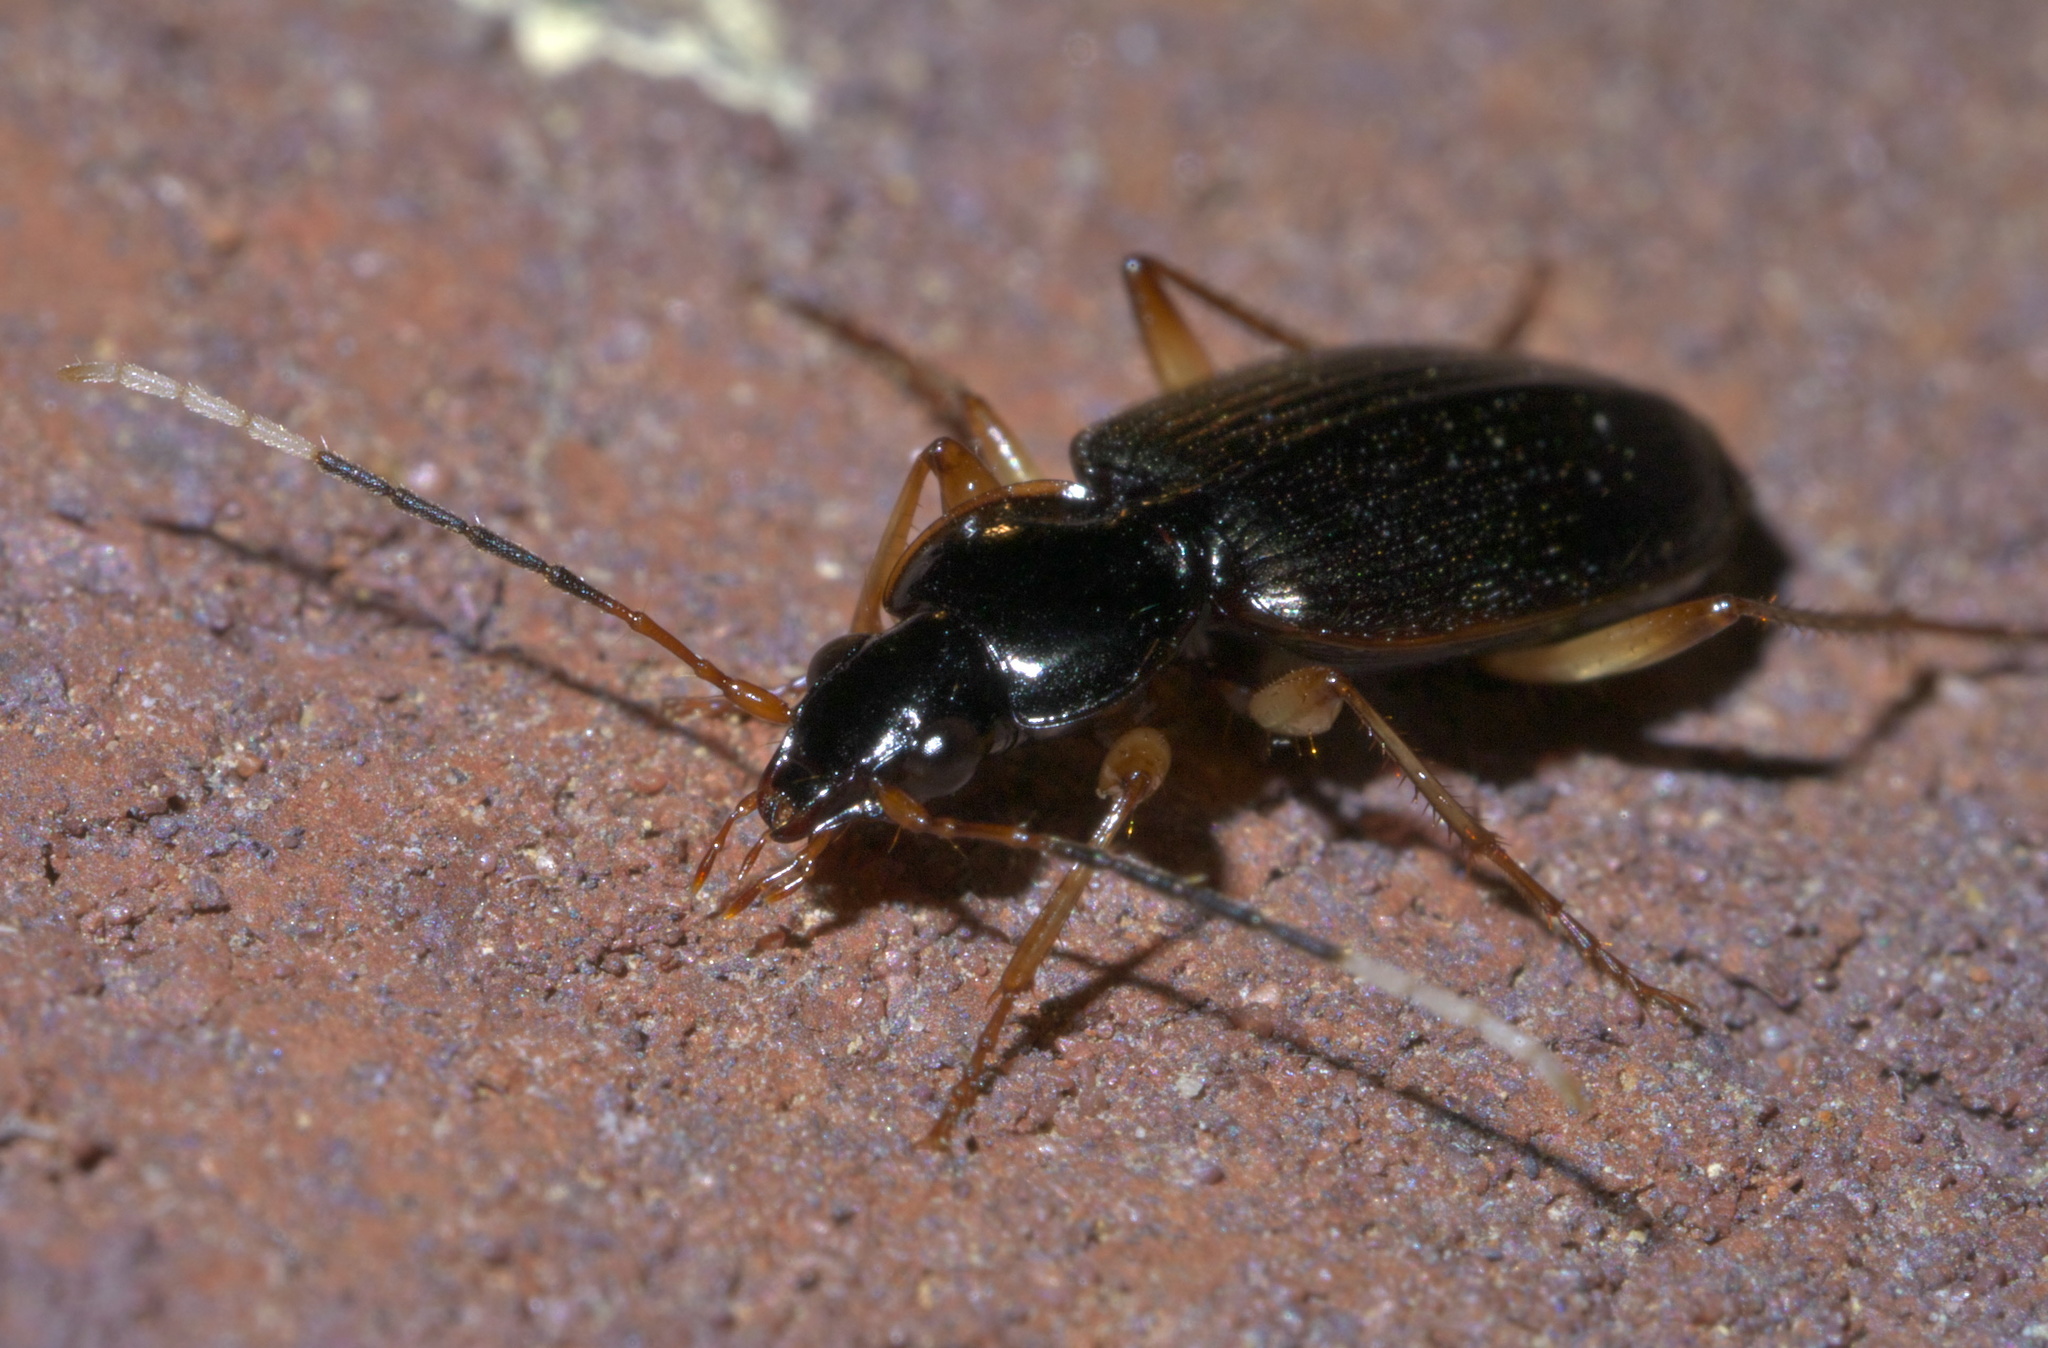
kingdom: Animalia
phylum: Arthropoda
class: Insecta
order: Coleoptera
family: Carabidae
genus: Tetraleucus
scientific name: Tetraleucus picticornis
